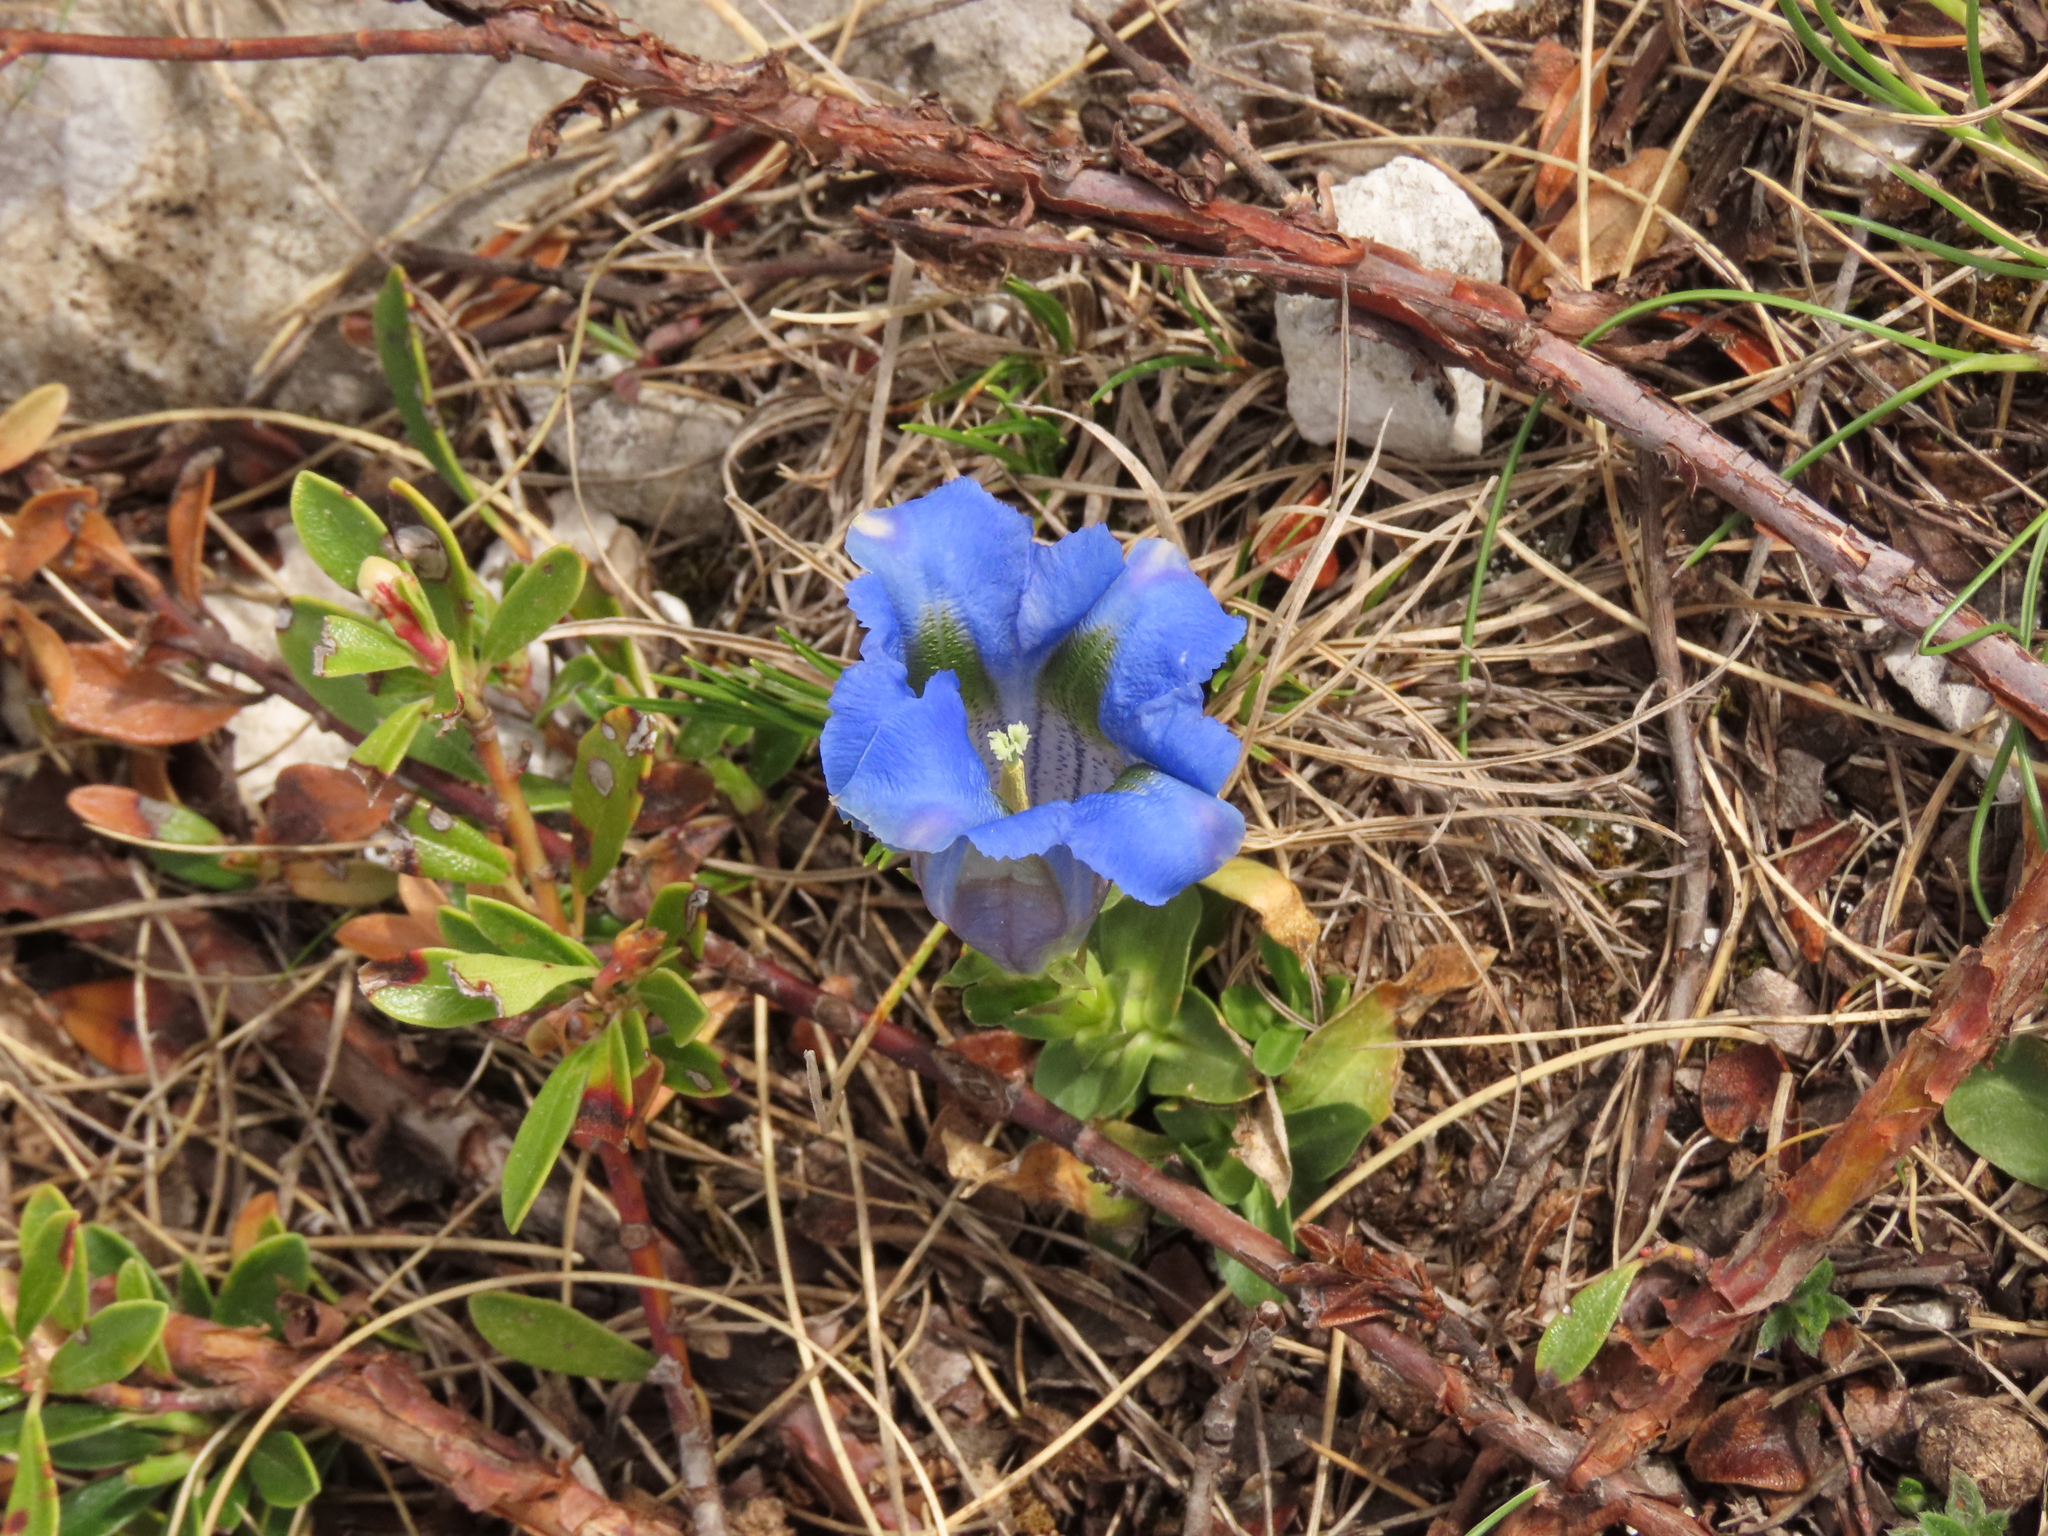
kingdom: Plantae
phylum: Tracheophyta
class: Magnoliopsida
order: Gentianales
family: Gentianaceae
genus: Gentiana
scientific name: Gentiana acaulis
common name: Trumpet gentian
